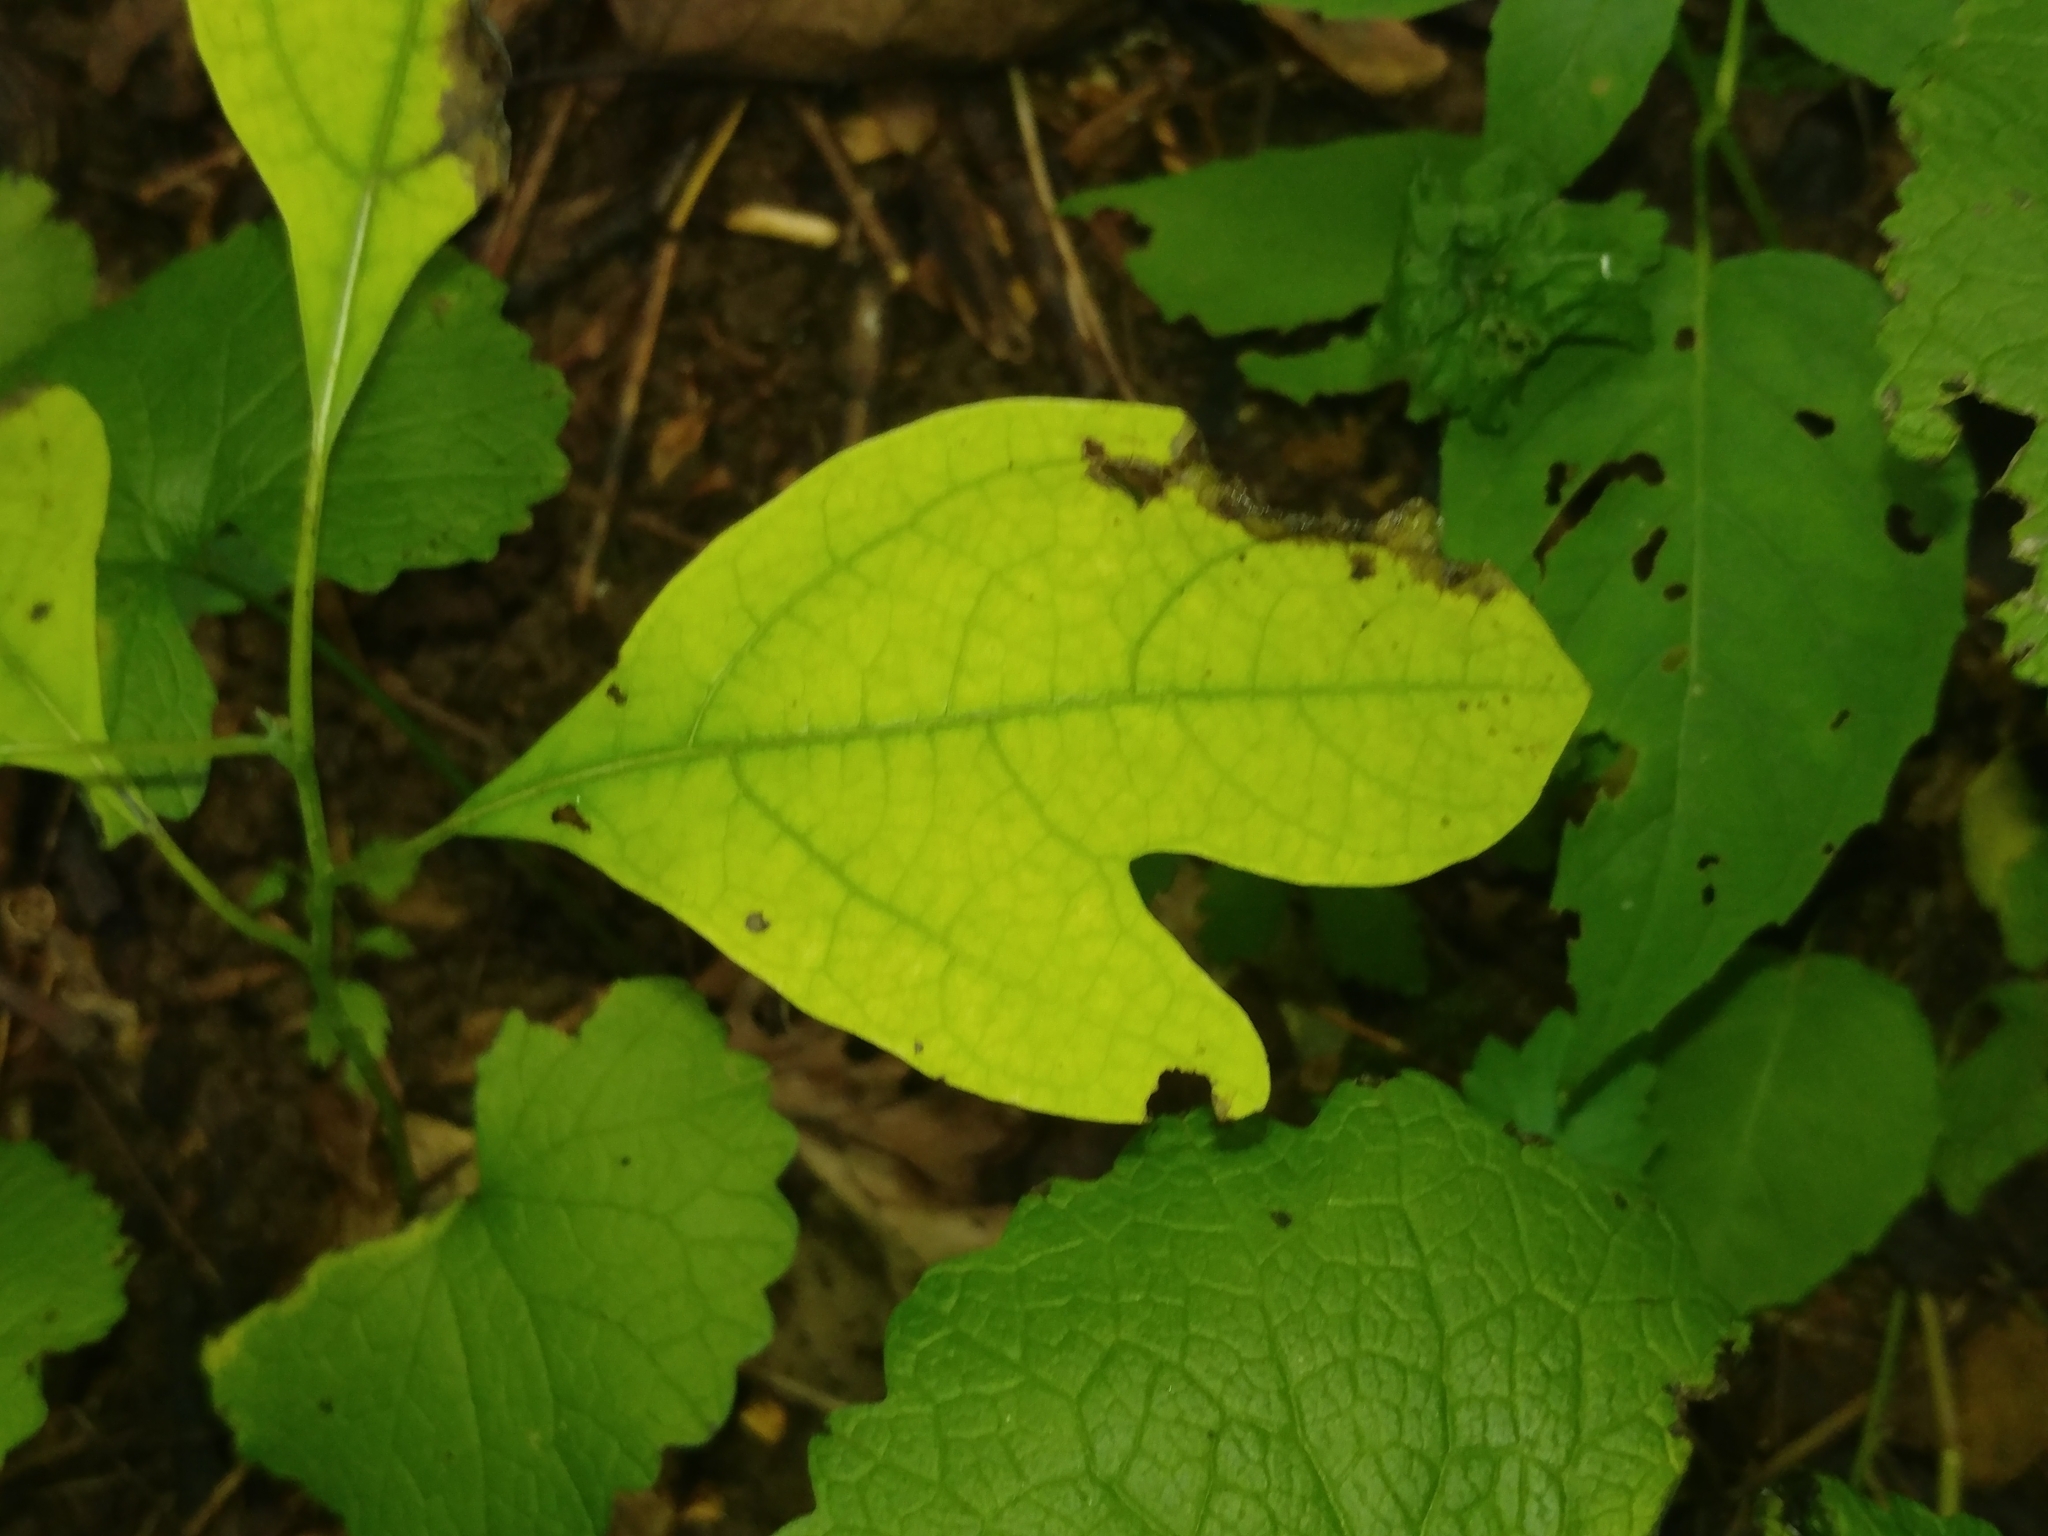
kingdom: Plantae
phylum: Tracheophyta
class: Magnoliopsida
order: Laurales
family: Lauraceae
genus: Sassafras
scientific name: Sassafras albidum
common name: Sassafras
